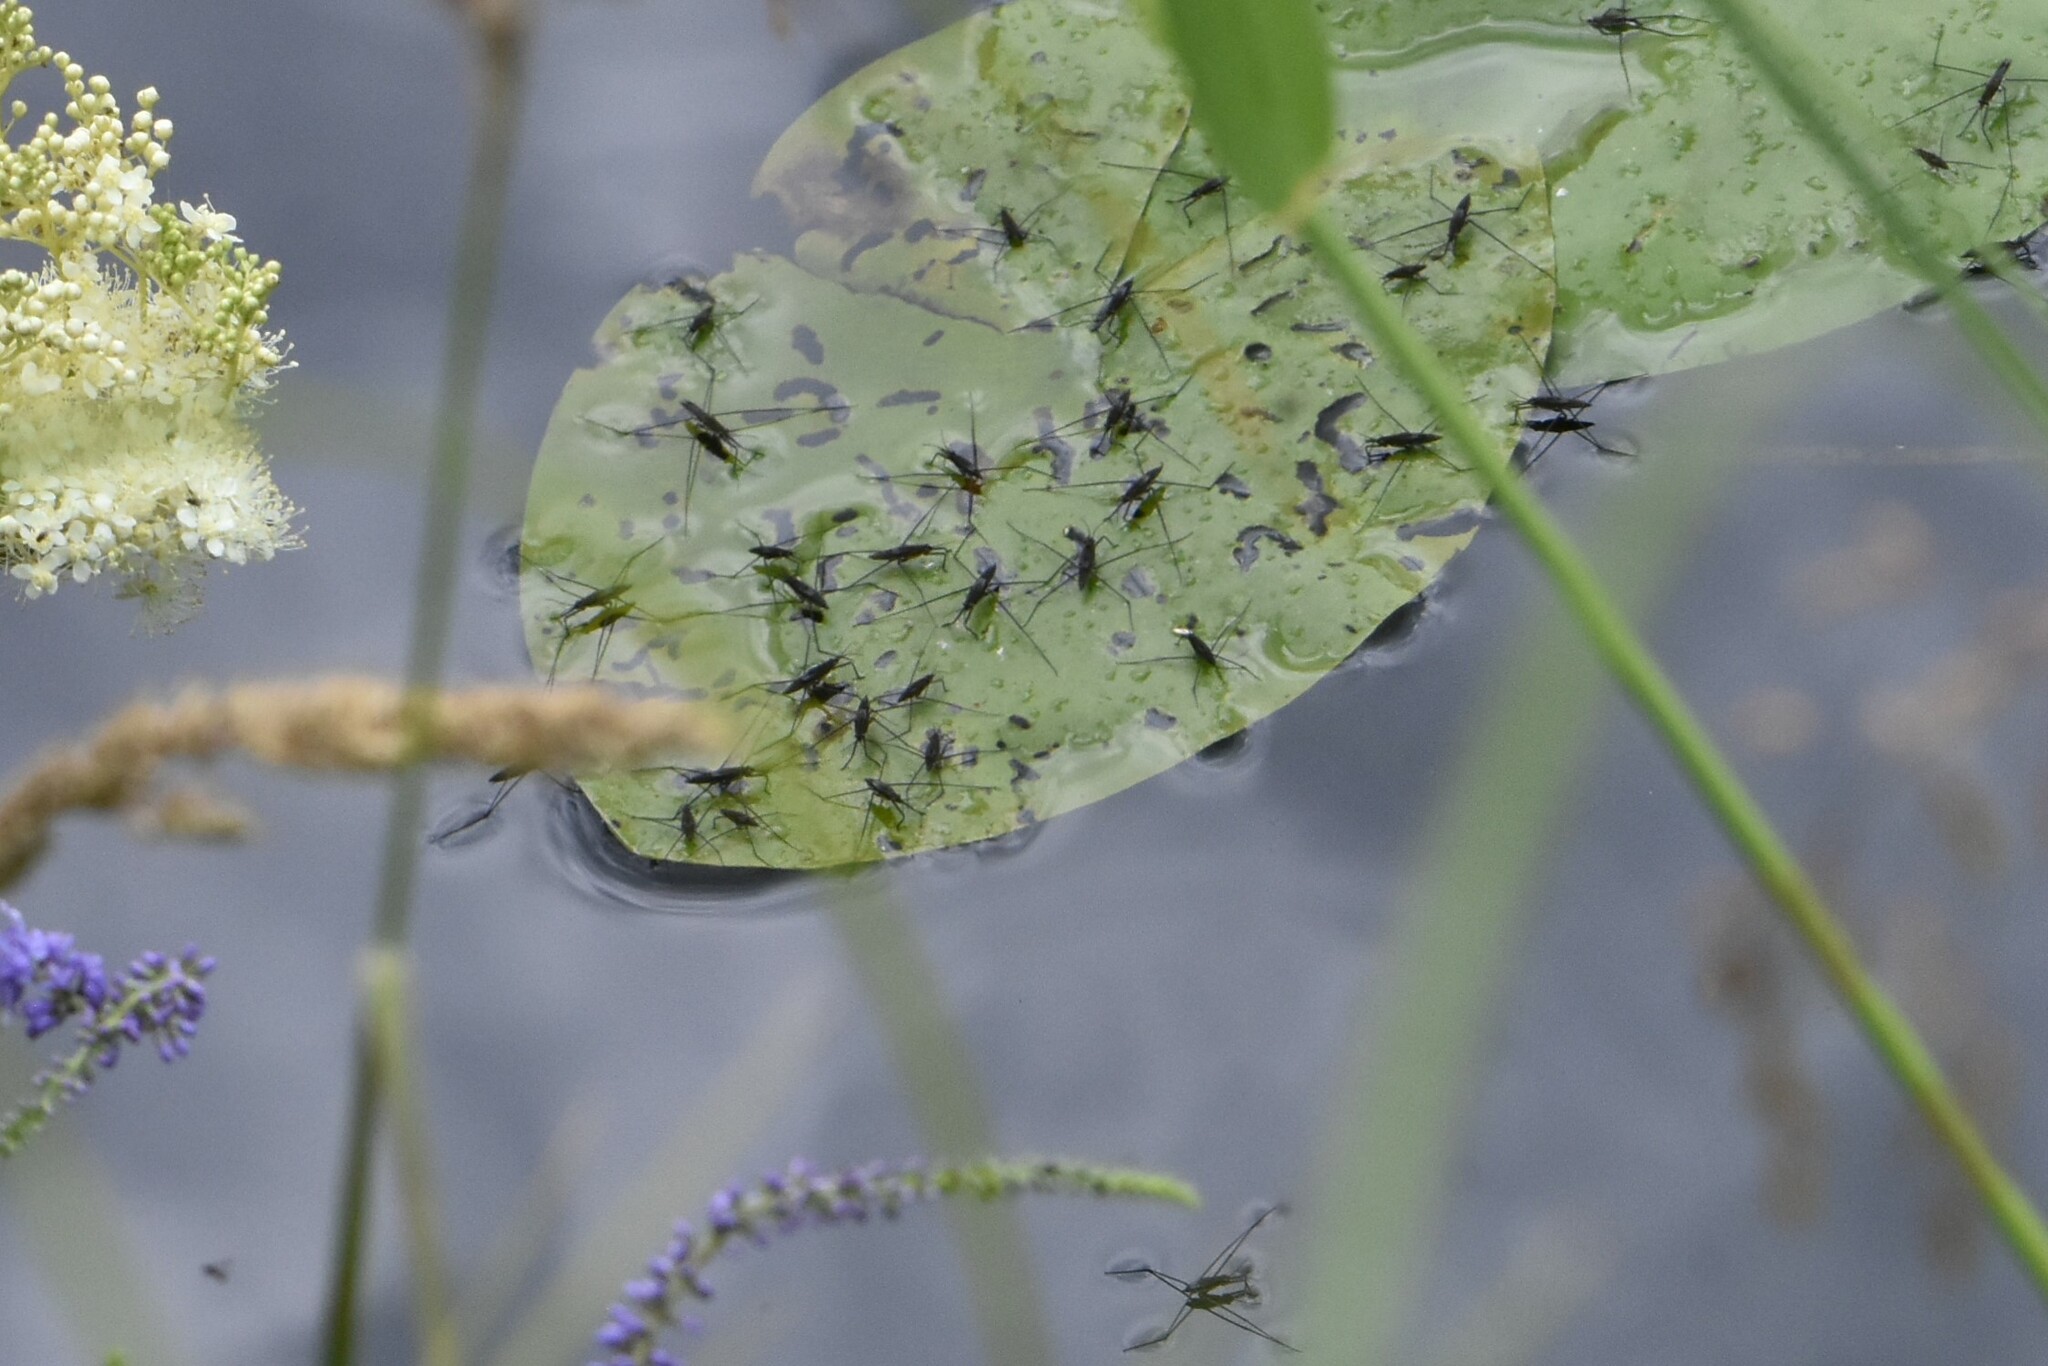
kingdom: Animalia
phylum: Arthropoda
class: Insecta
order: Hemiptera
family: Gerridae
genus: Aquarius
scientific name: Aquarius paludum
